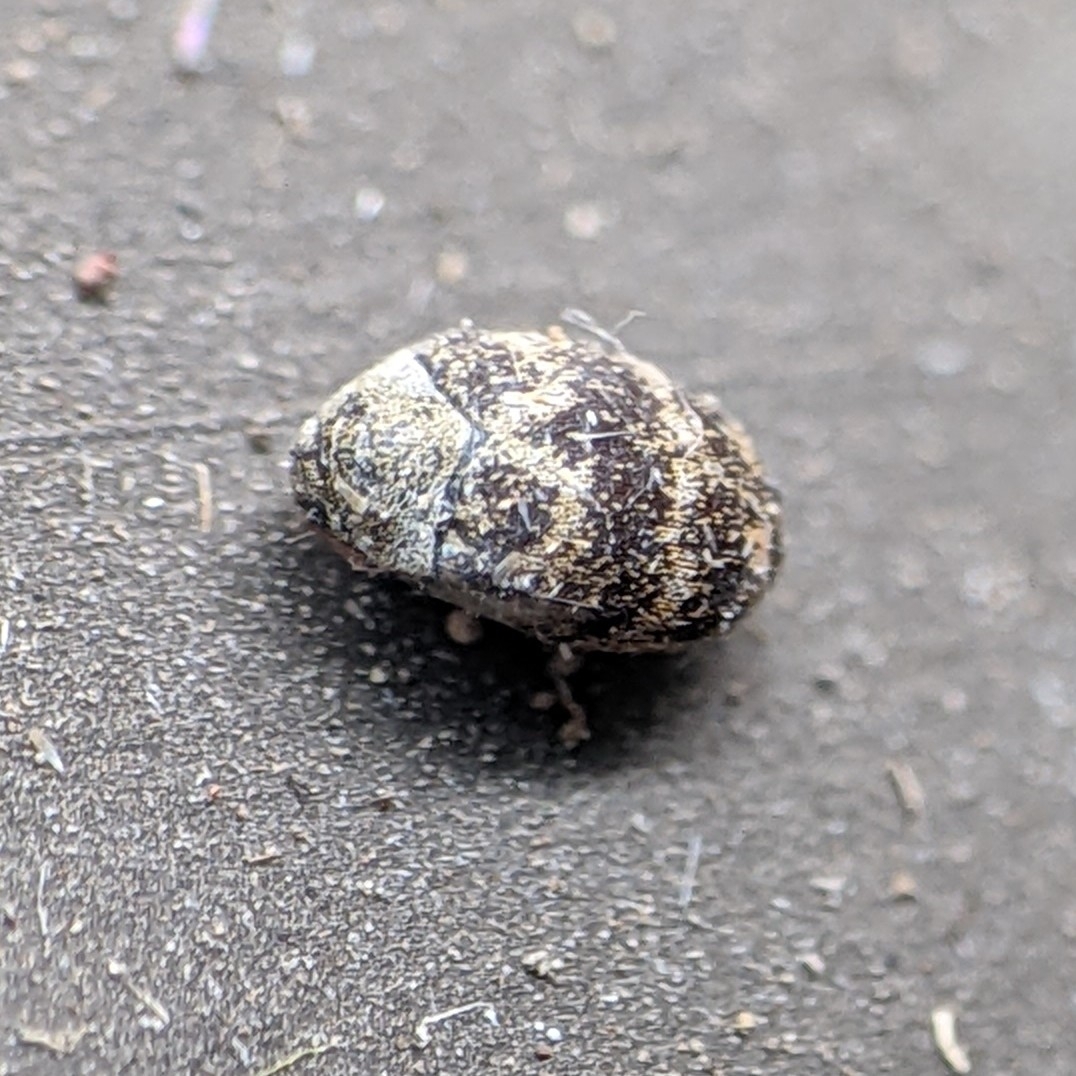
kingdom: Animalia
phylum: Arthropoda
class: Insecta
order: Coleoptera
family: Dermestidae
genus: Anthrenus
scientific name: Anthrenus fuscus
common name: Mill carpet beetle
